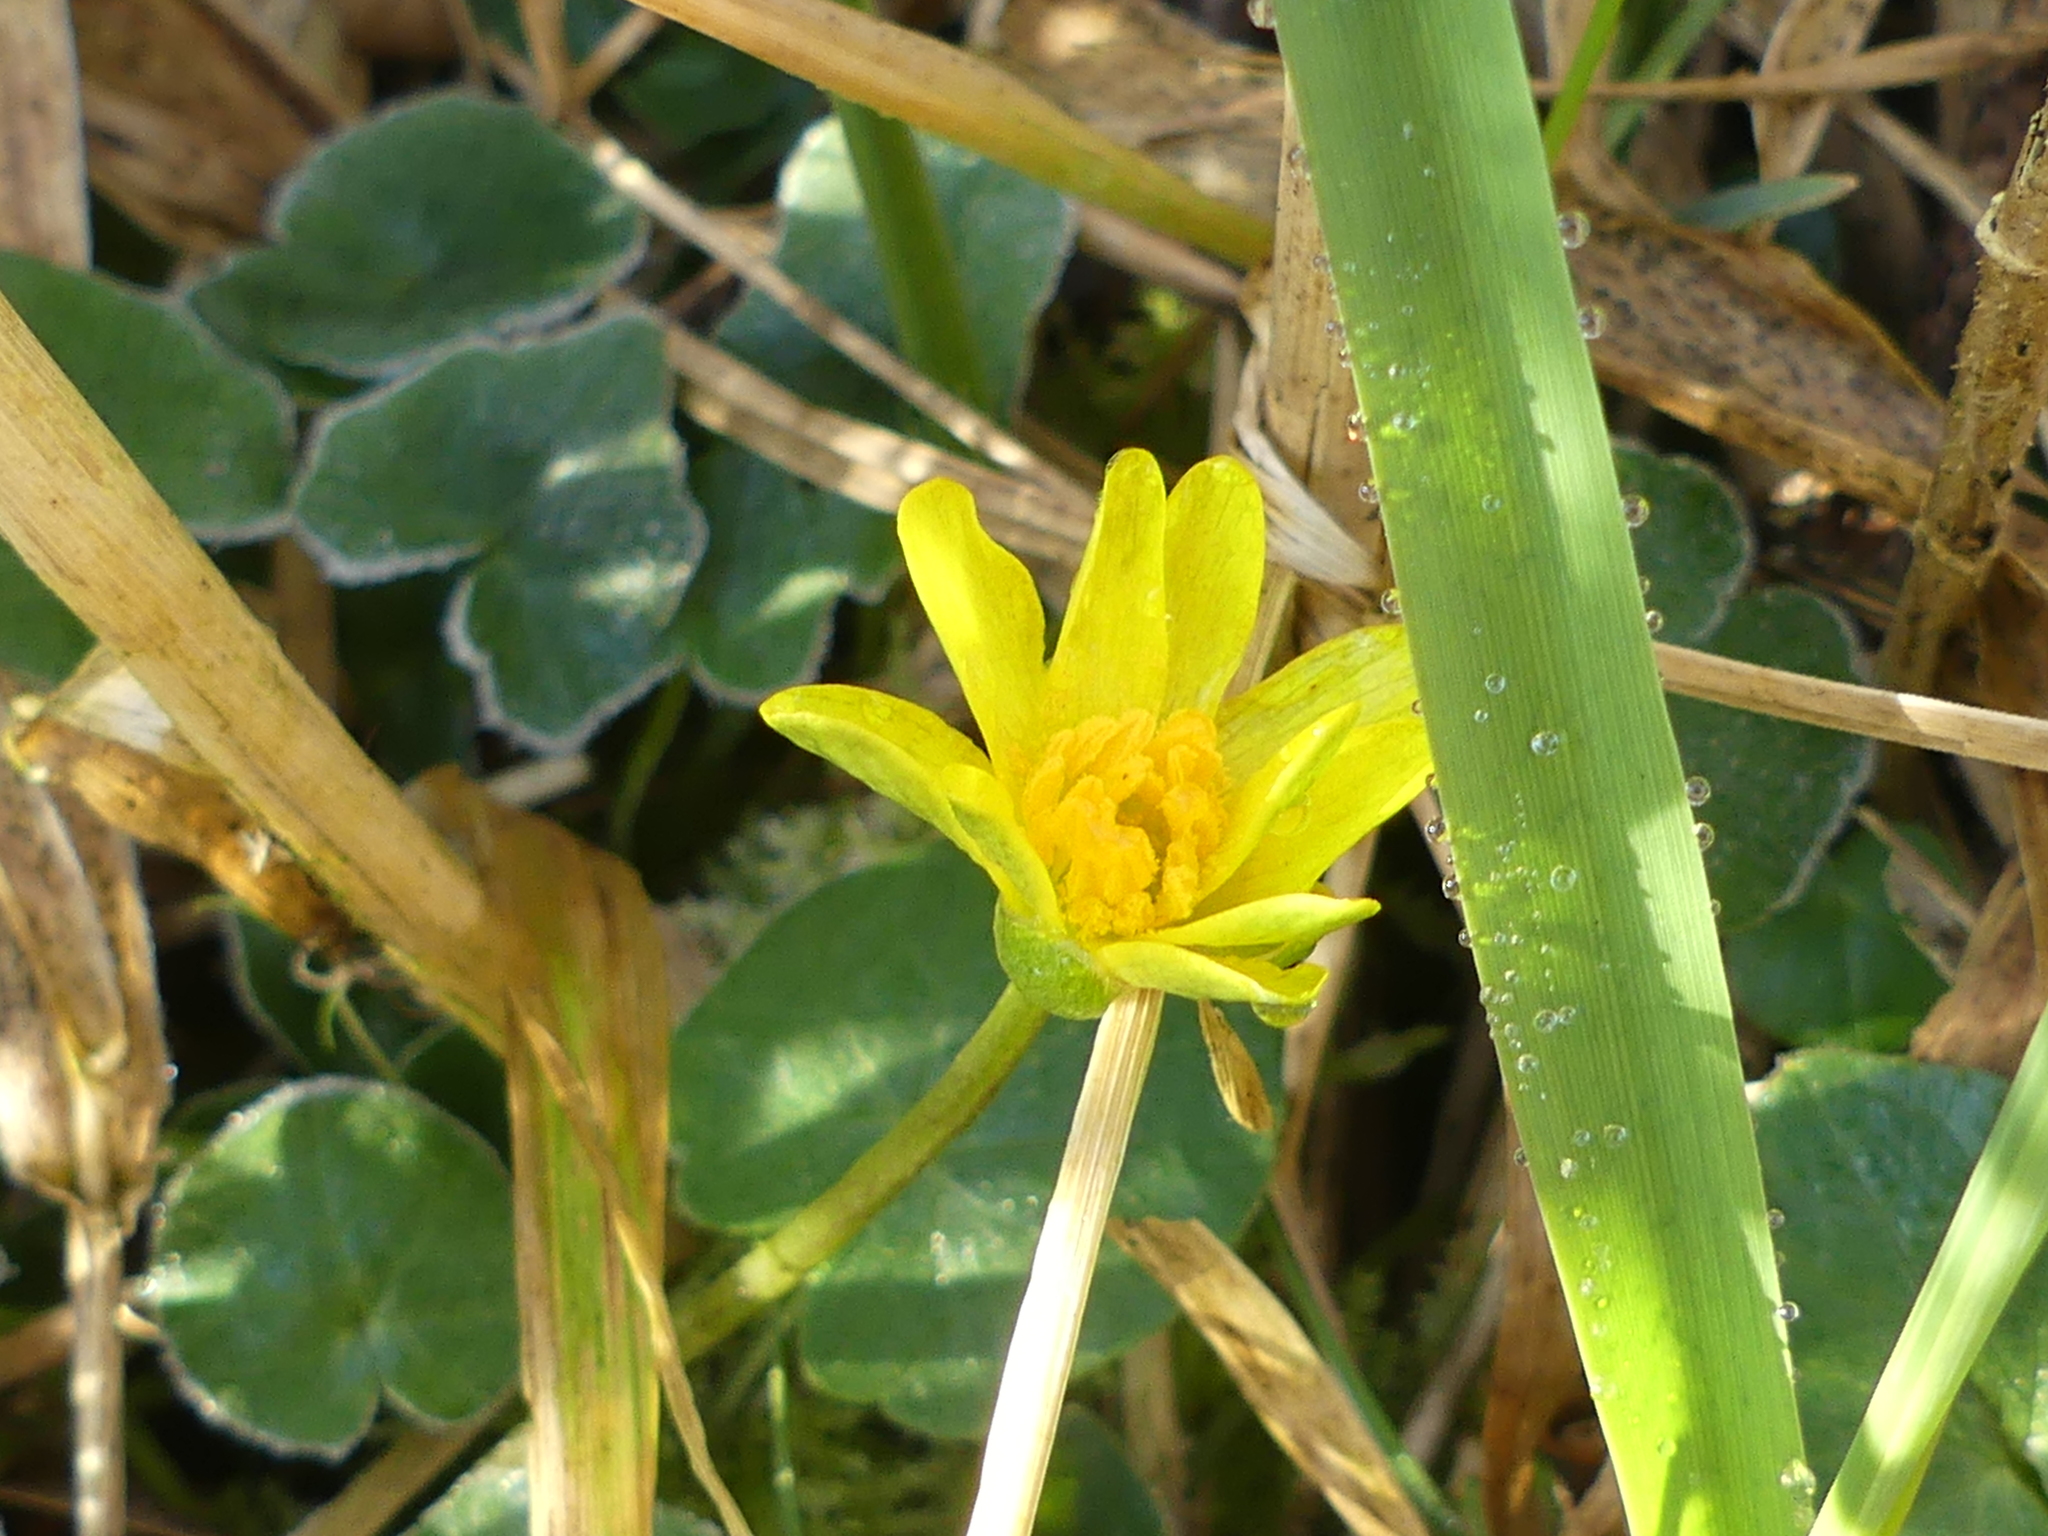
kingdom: Plantae
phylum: Tracheophyta
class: Magnoliopsida
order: Ranunculales
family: Ranunculaceae
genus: Ficaria
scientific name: Ficaria verna
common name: Lesser celandine
